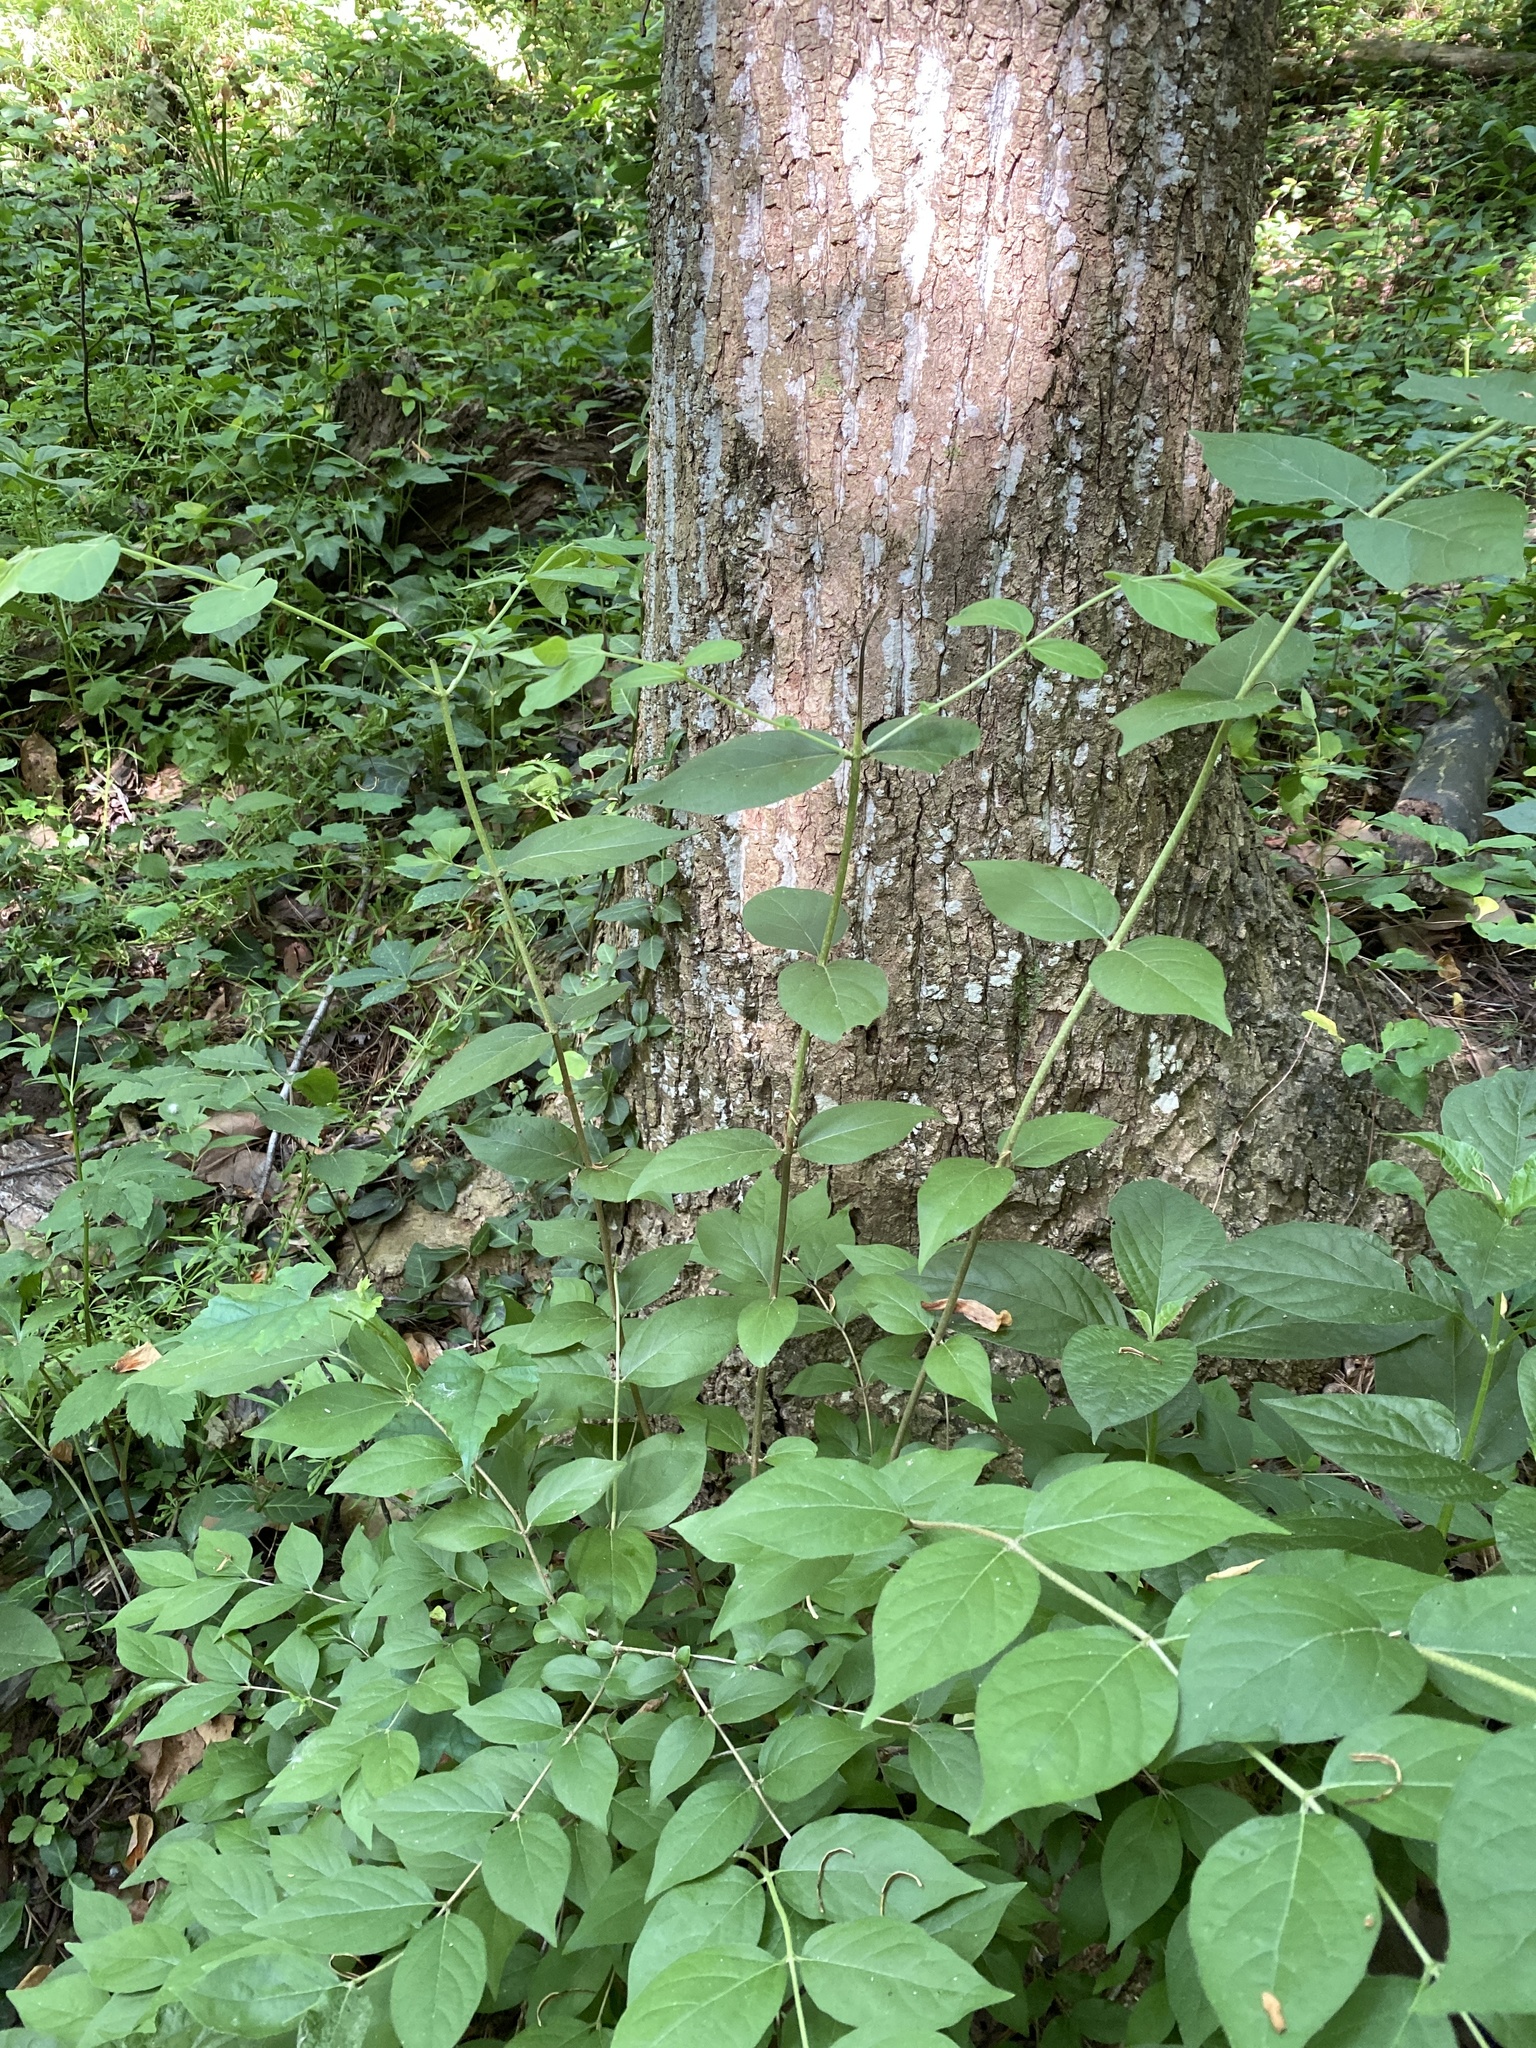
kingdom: Plantae
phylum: Tracheophyta
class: Magnoliopsida
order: Dipsacales
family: Caprifoliaceae
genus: Lonicera
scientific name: Lonicera maackii
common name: Amur honeysuckle
